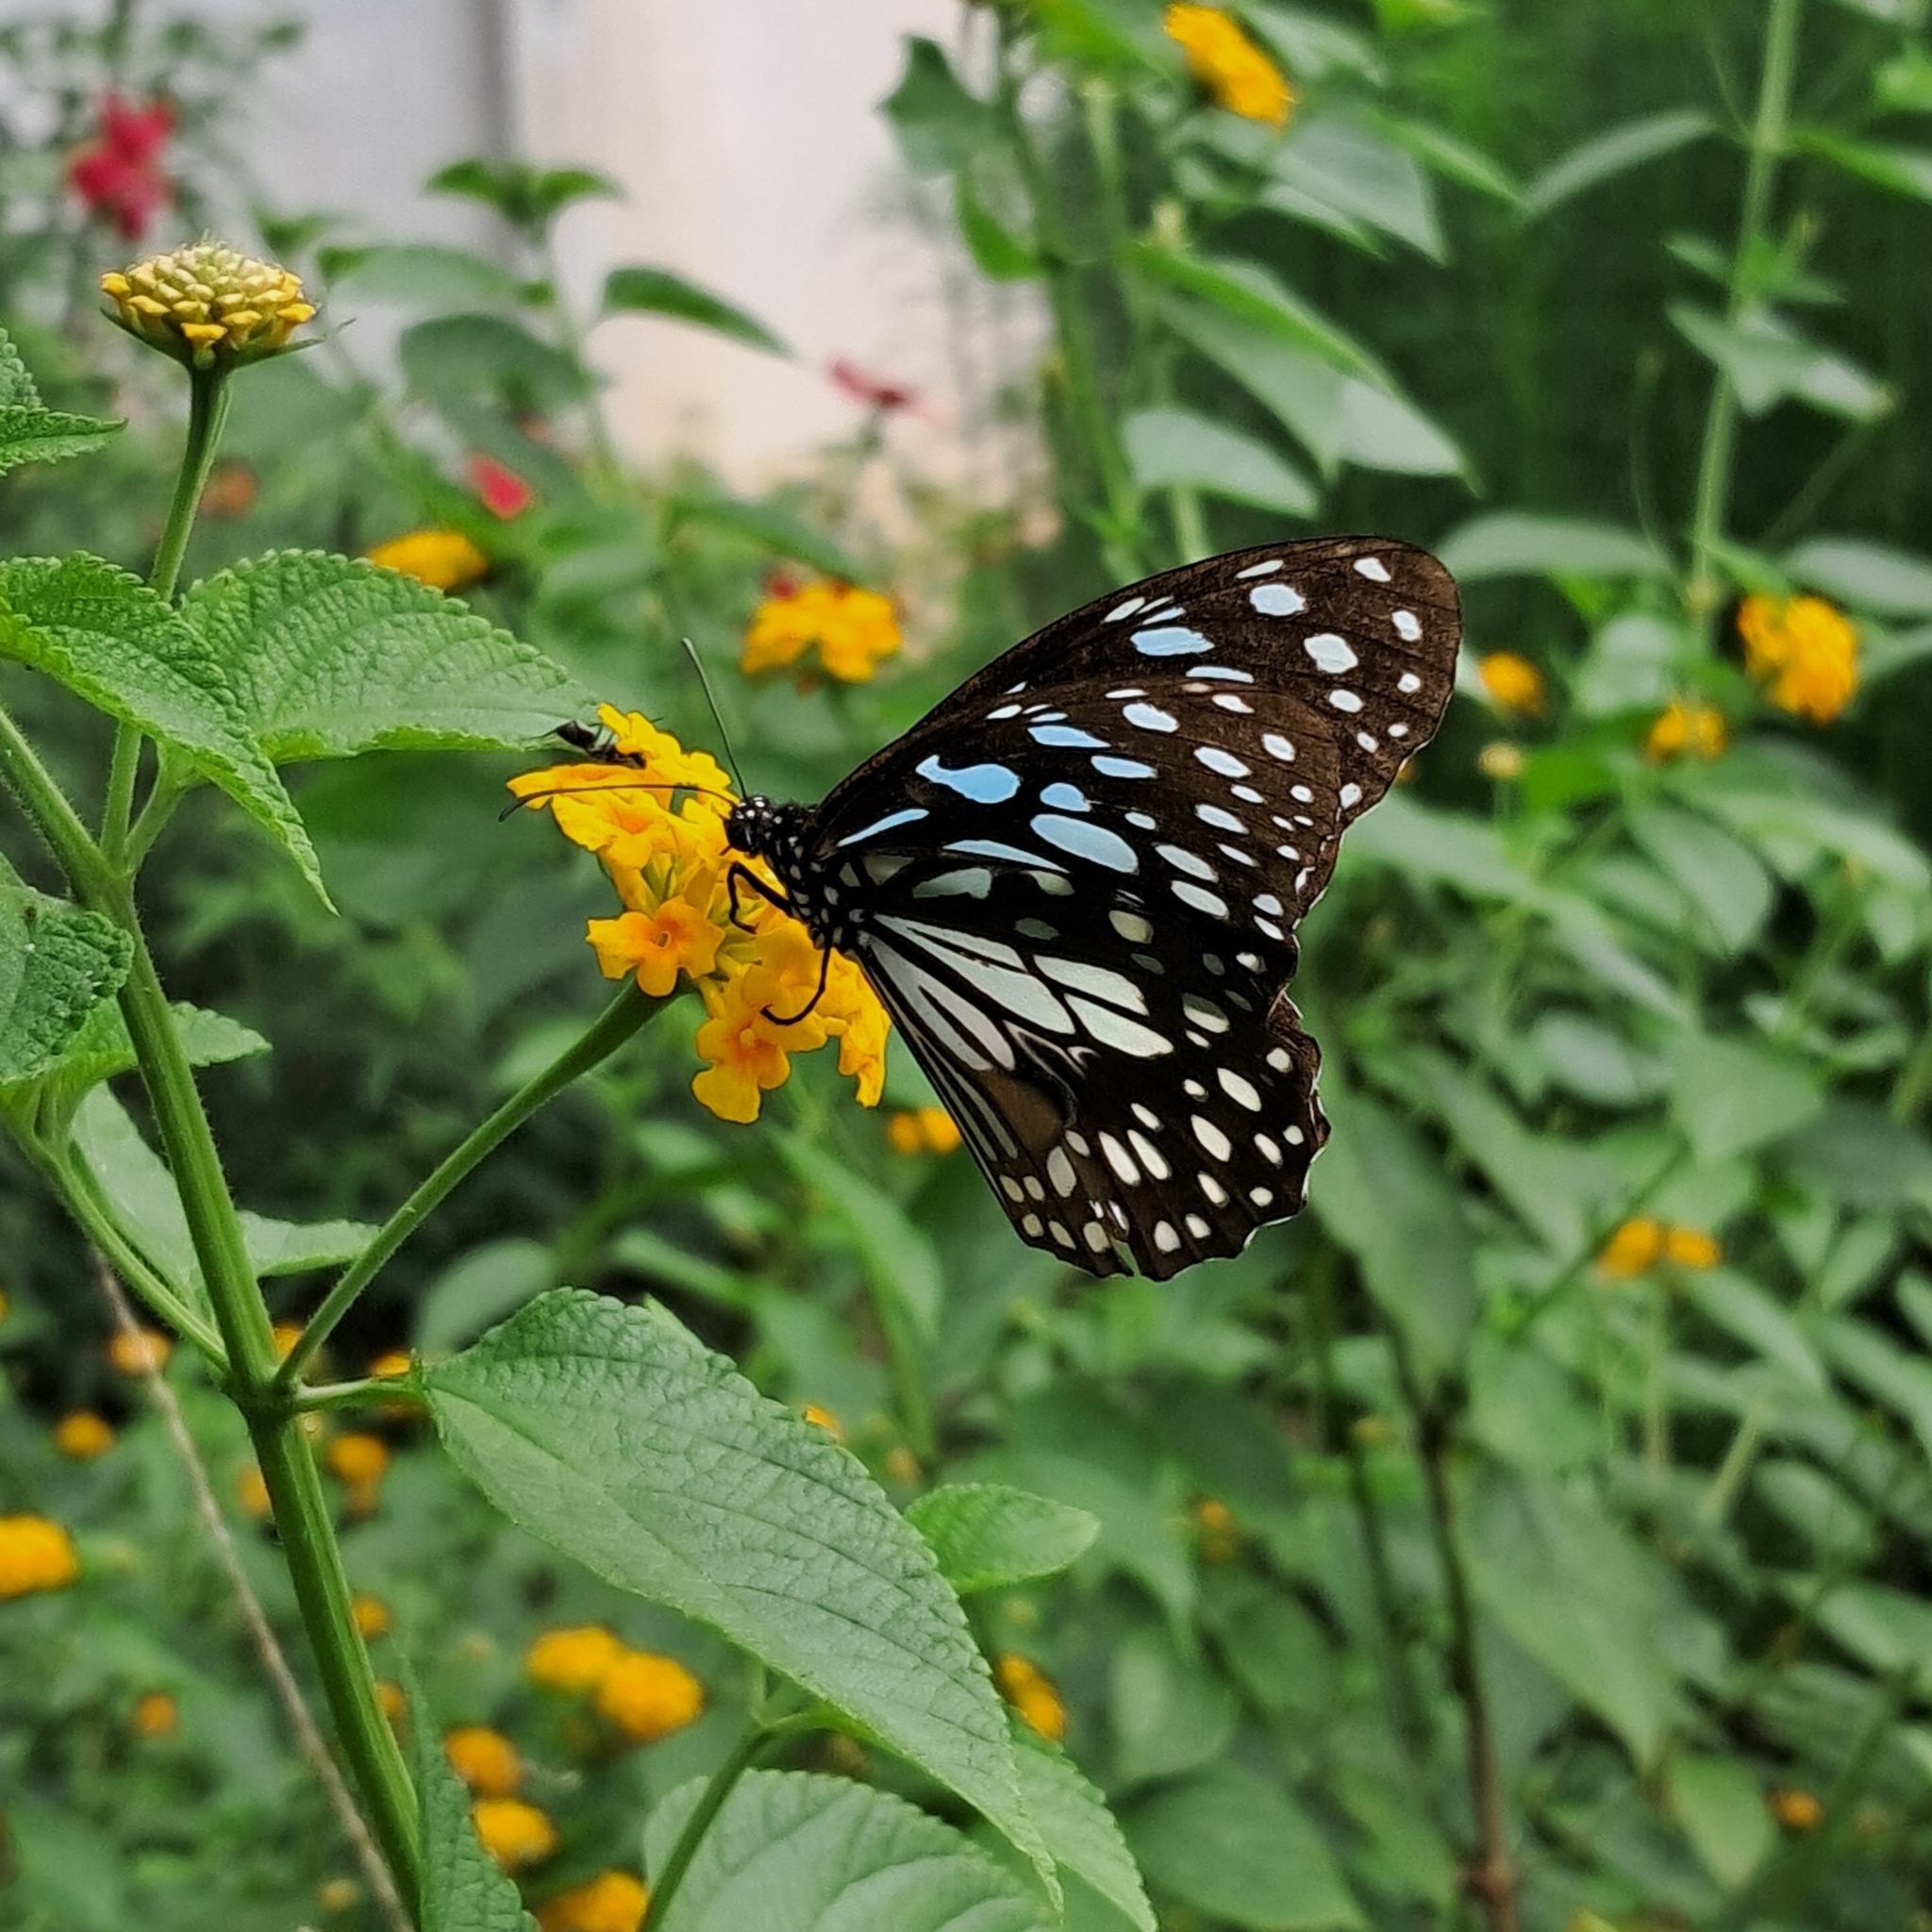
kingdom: Animalia
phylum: Arthropoda
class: Insecta
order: Lepidoptera
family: Nymphalidae
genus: Tirumala
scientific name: Tirumala limniace
